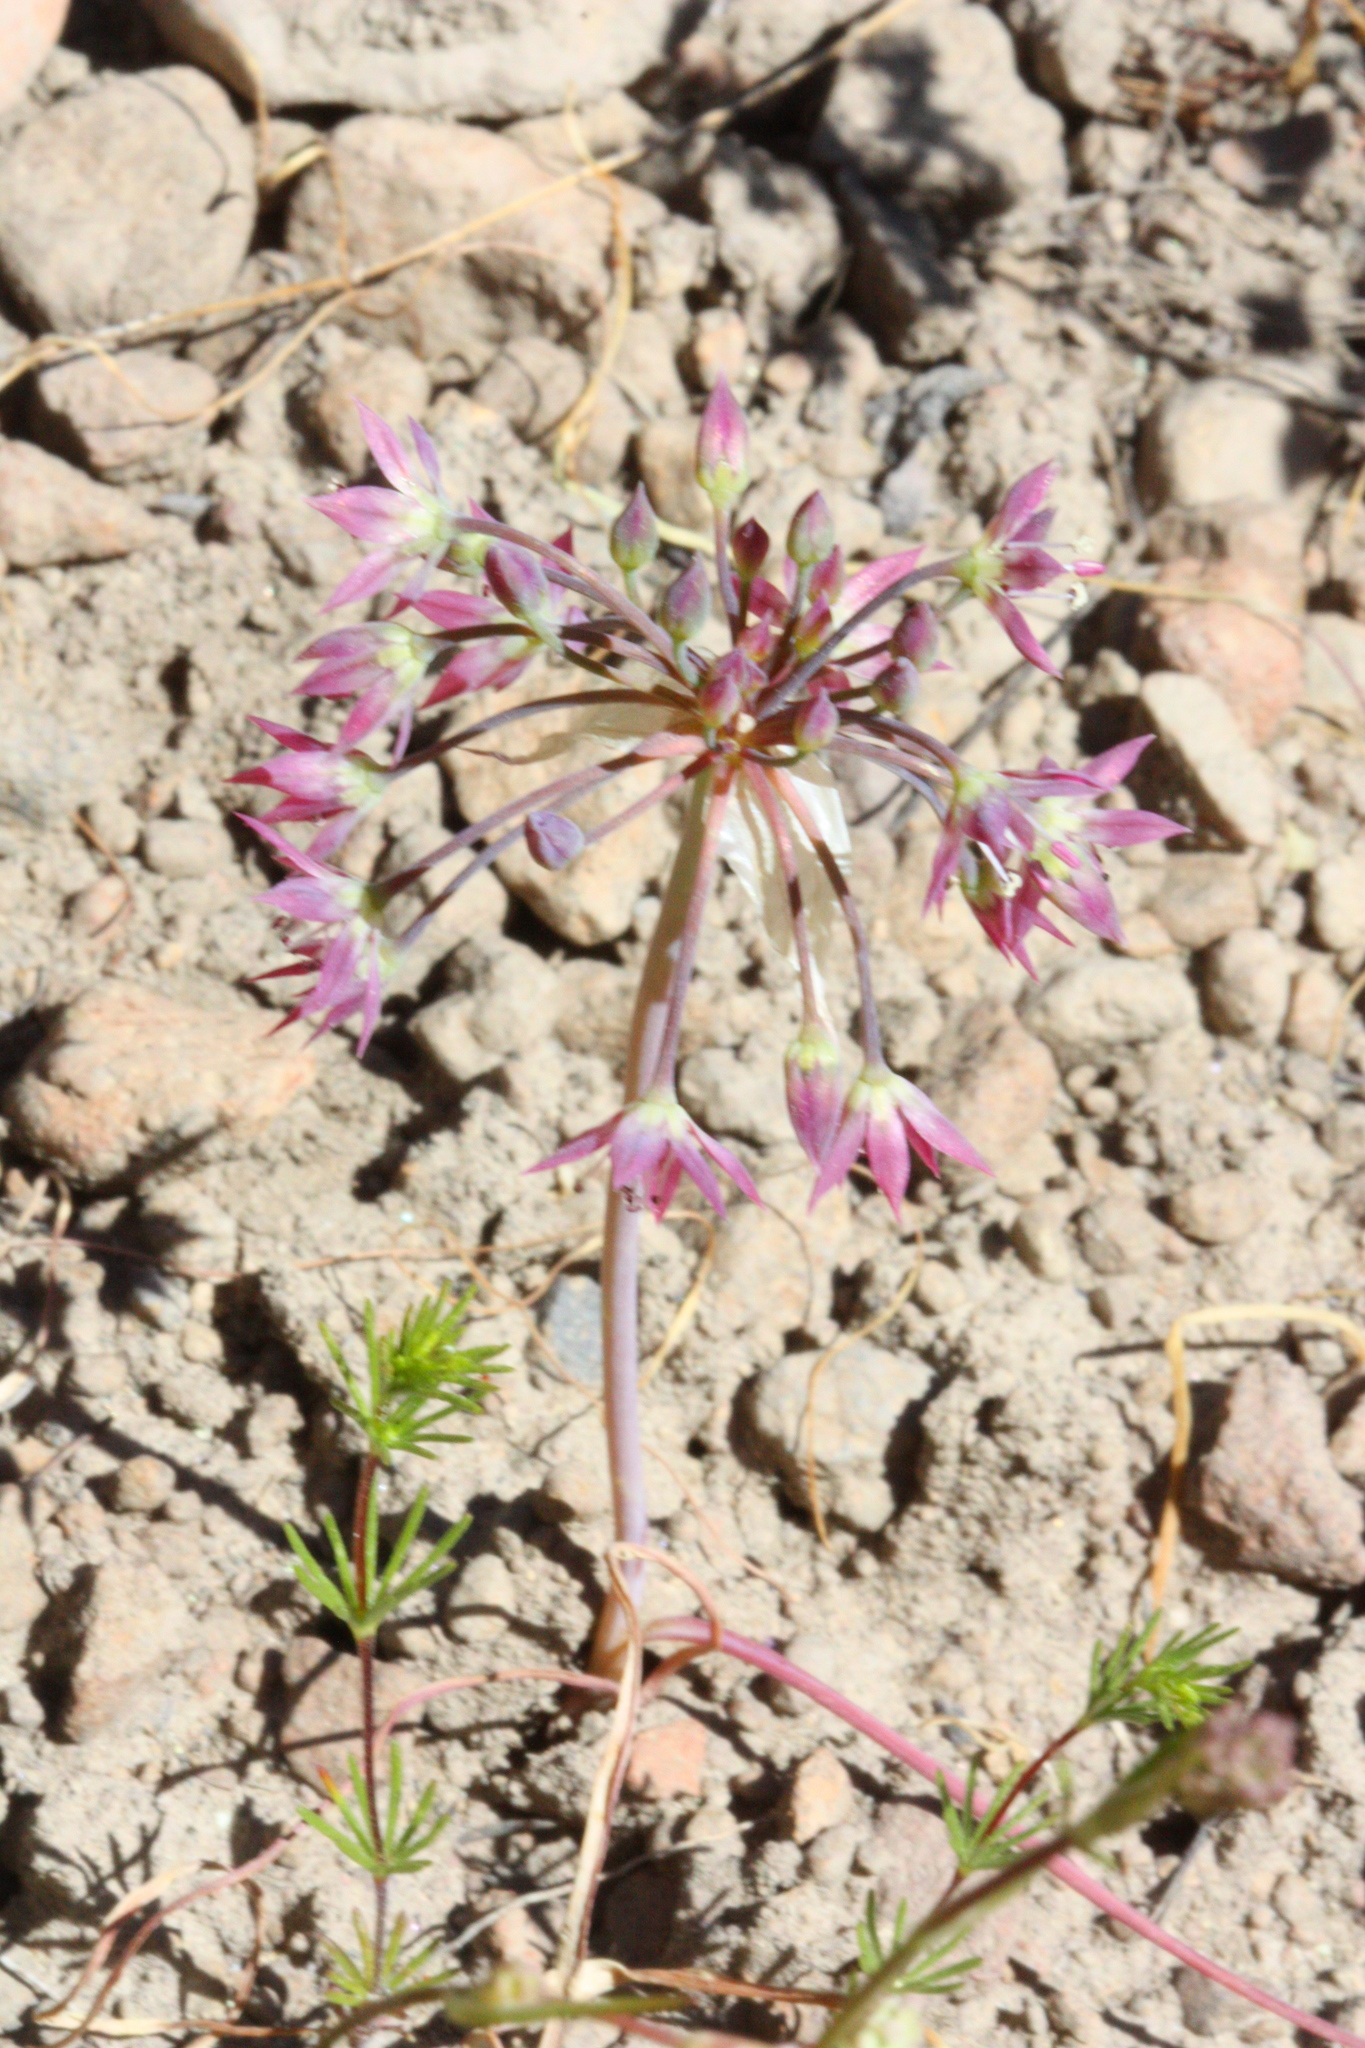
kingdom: Plantae
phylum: Tracheophyta
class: Liliopsida
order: Asparagales
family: Amaryllidaceae
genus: Allium
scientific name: Allium campanulatum
